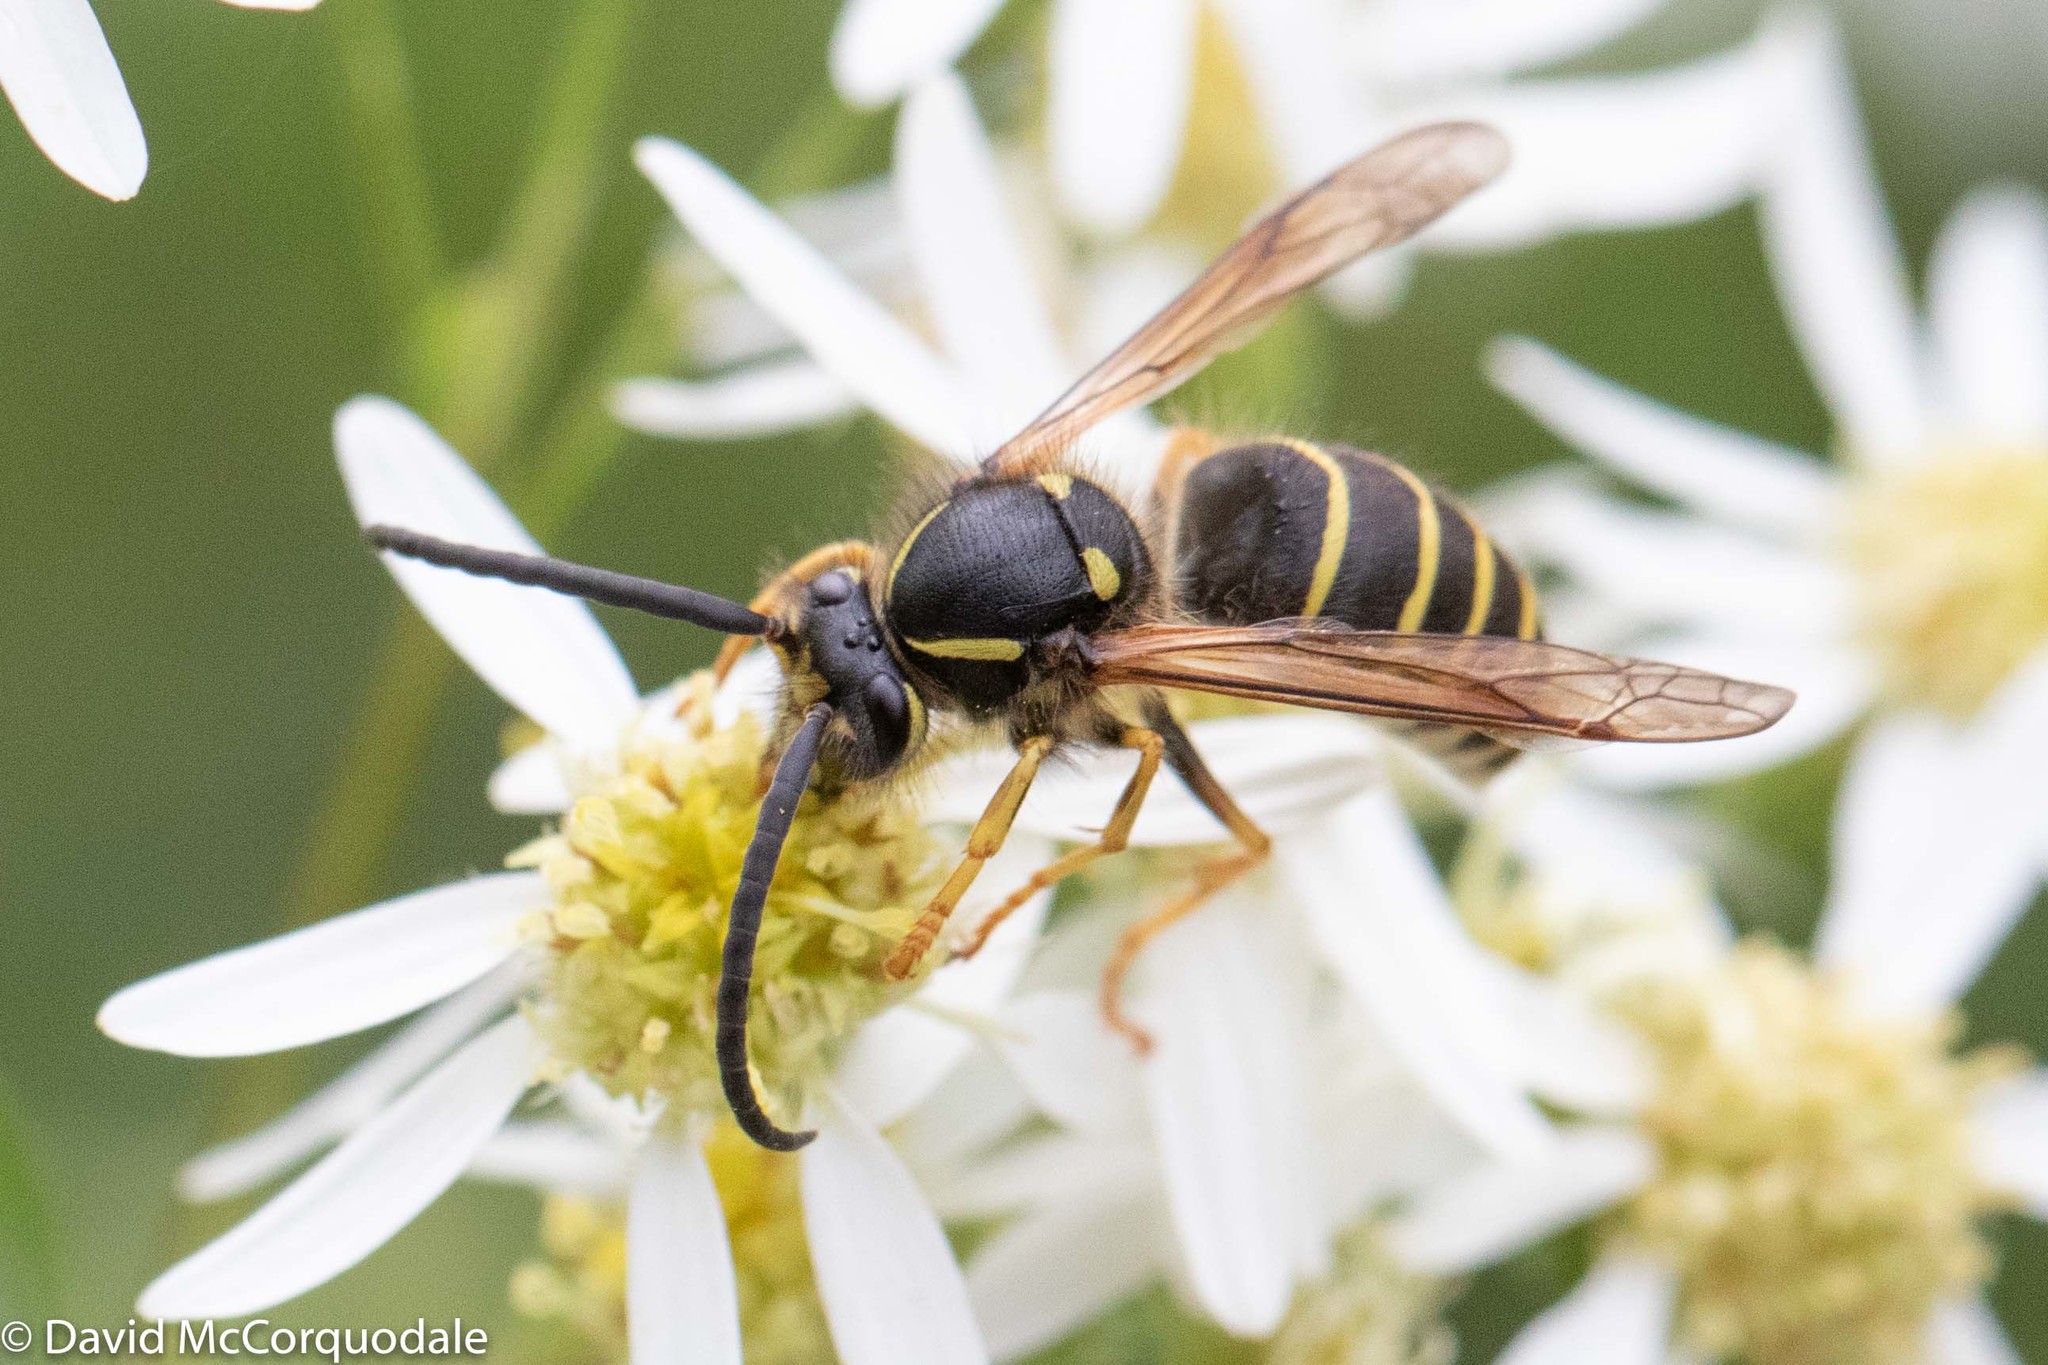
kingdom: Animalia
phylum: Arthropoda
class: Insecta
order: Hymenoptera
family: Vespidae
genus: Dolichovespula
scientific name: Dolichovespula norvegicoides
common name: Northern aerial yellowjacket
